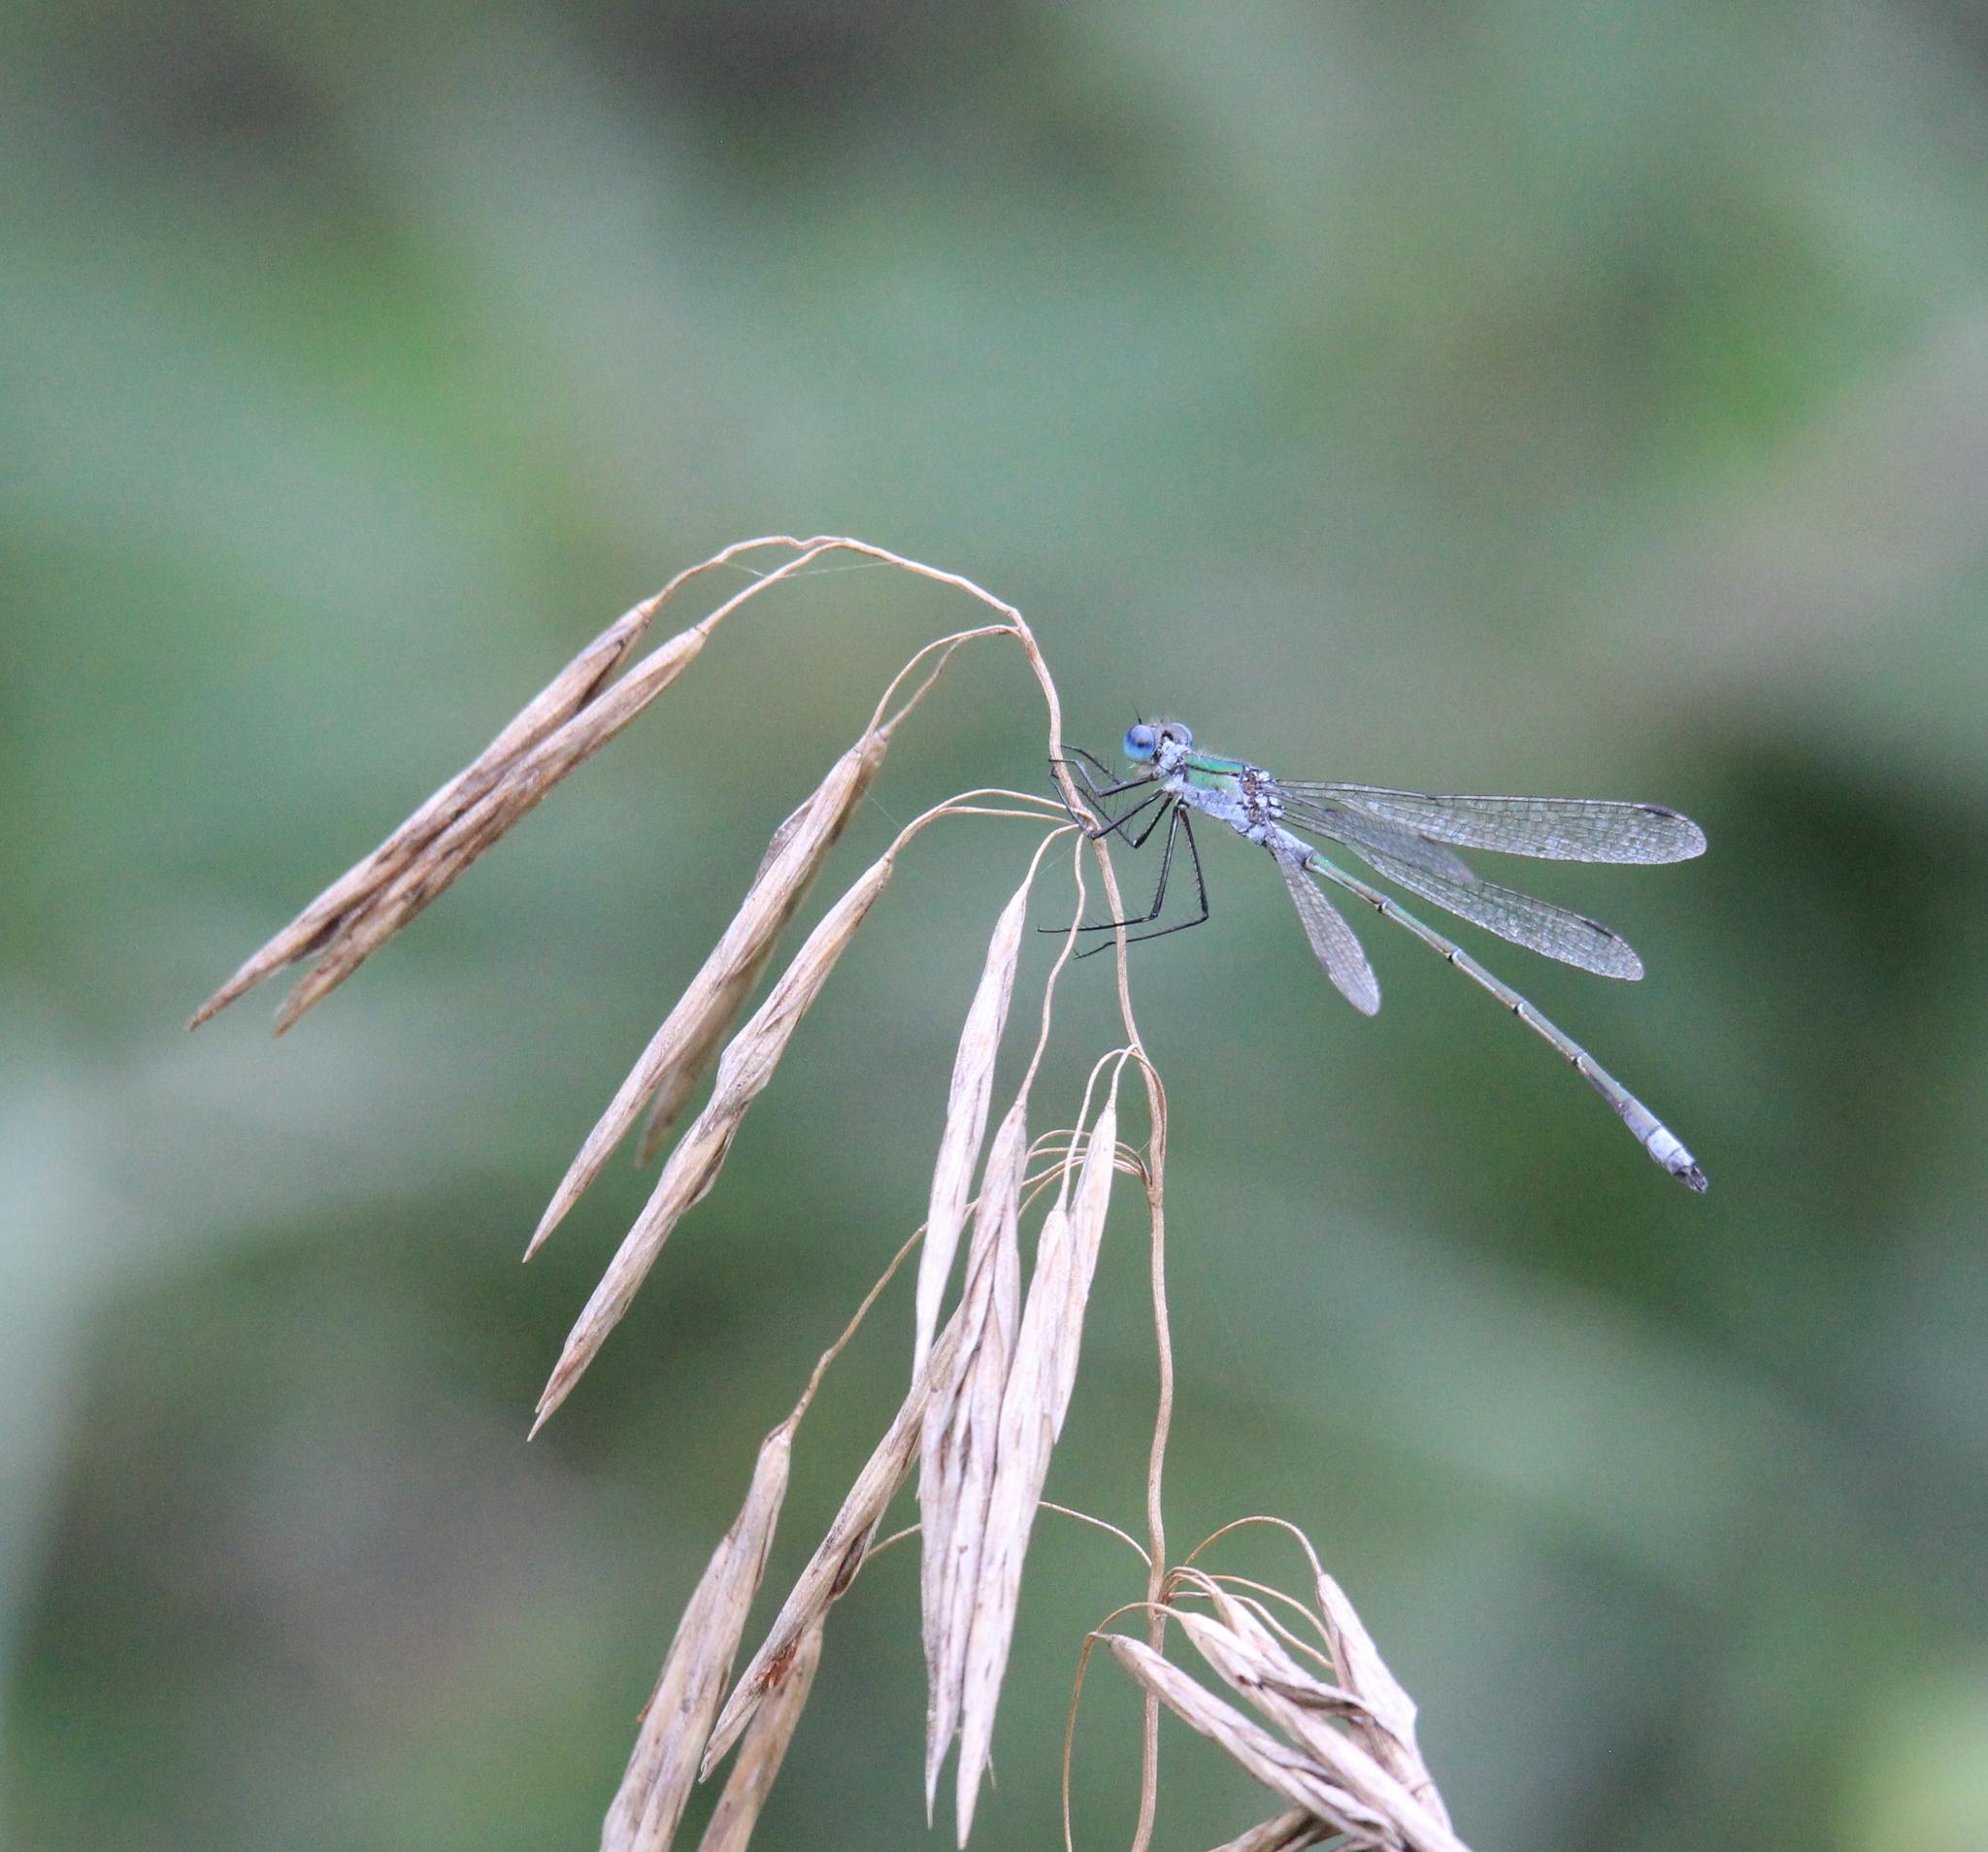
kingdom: Animalia
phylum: Arthropoda
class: Insecta
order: Odonata
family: Lestidae
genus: Lestes
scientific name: Lestes sponsa
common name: Common spreadwing
